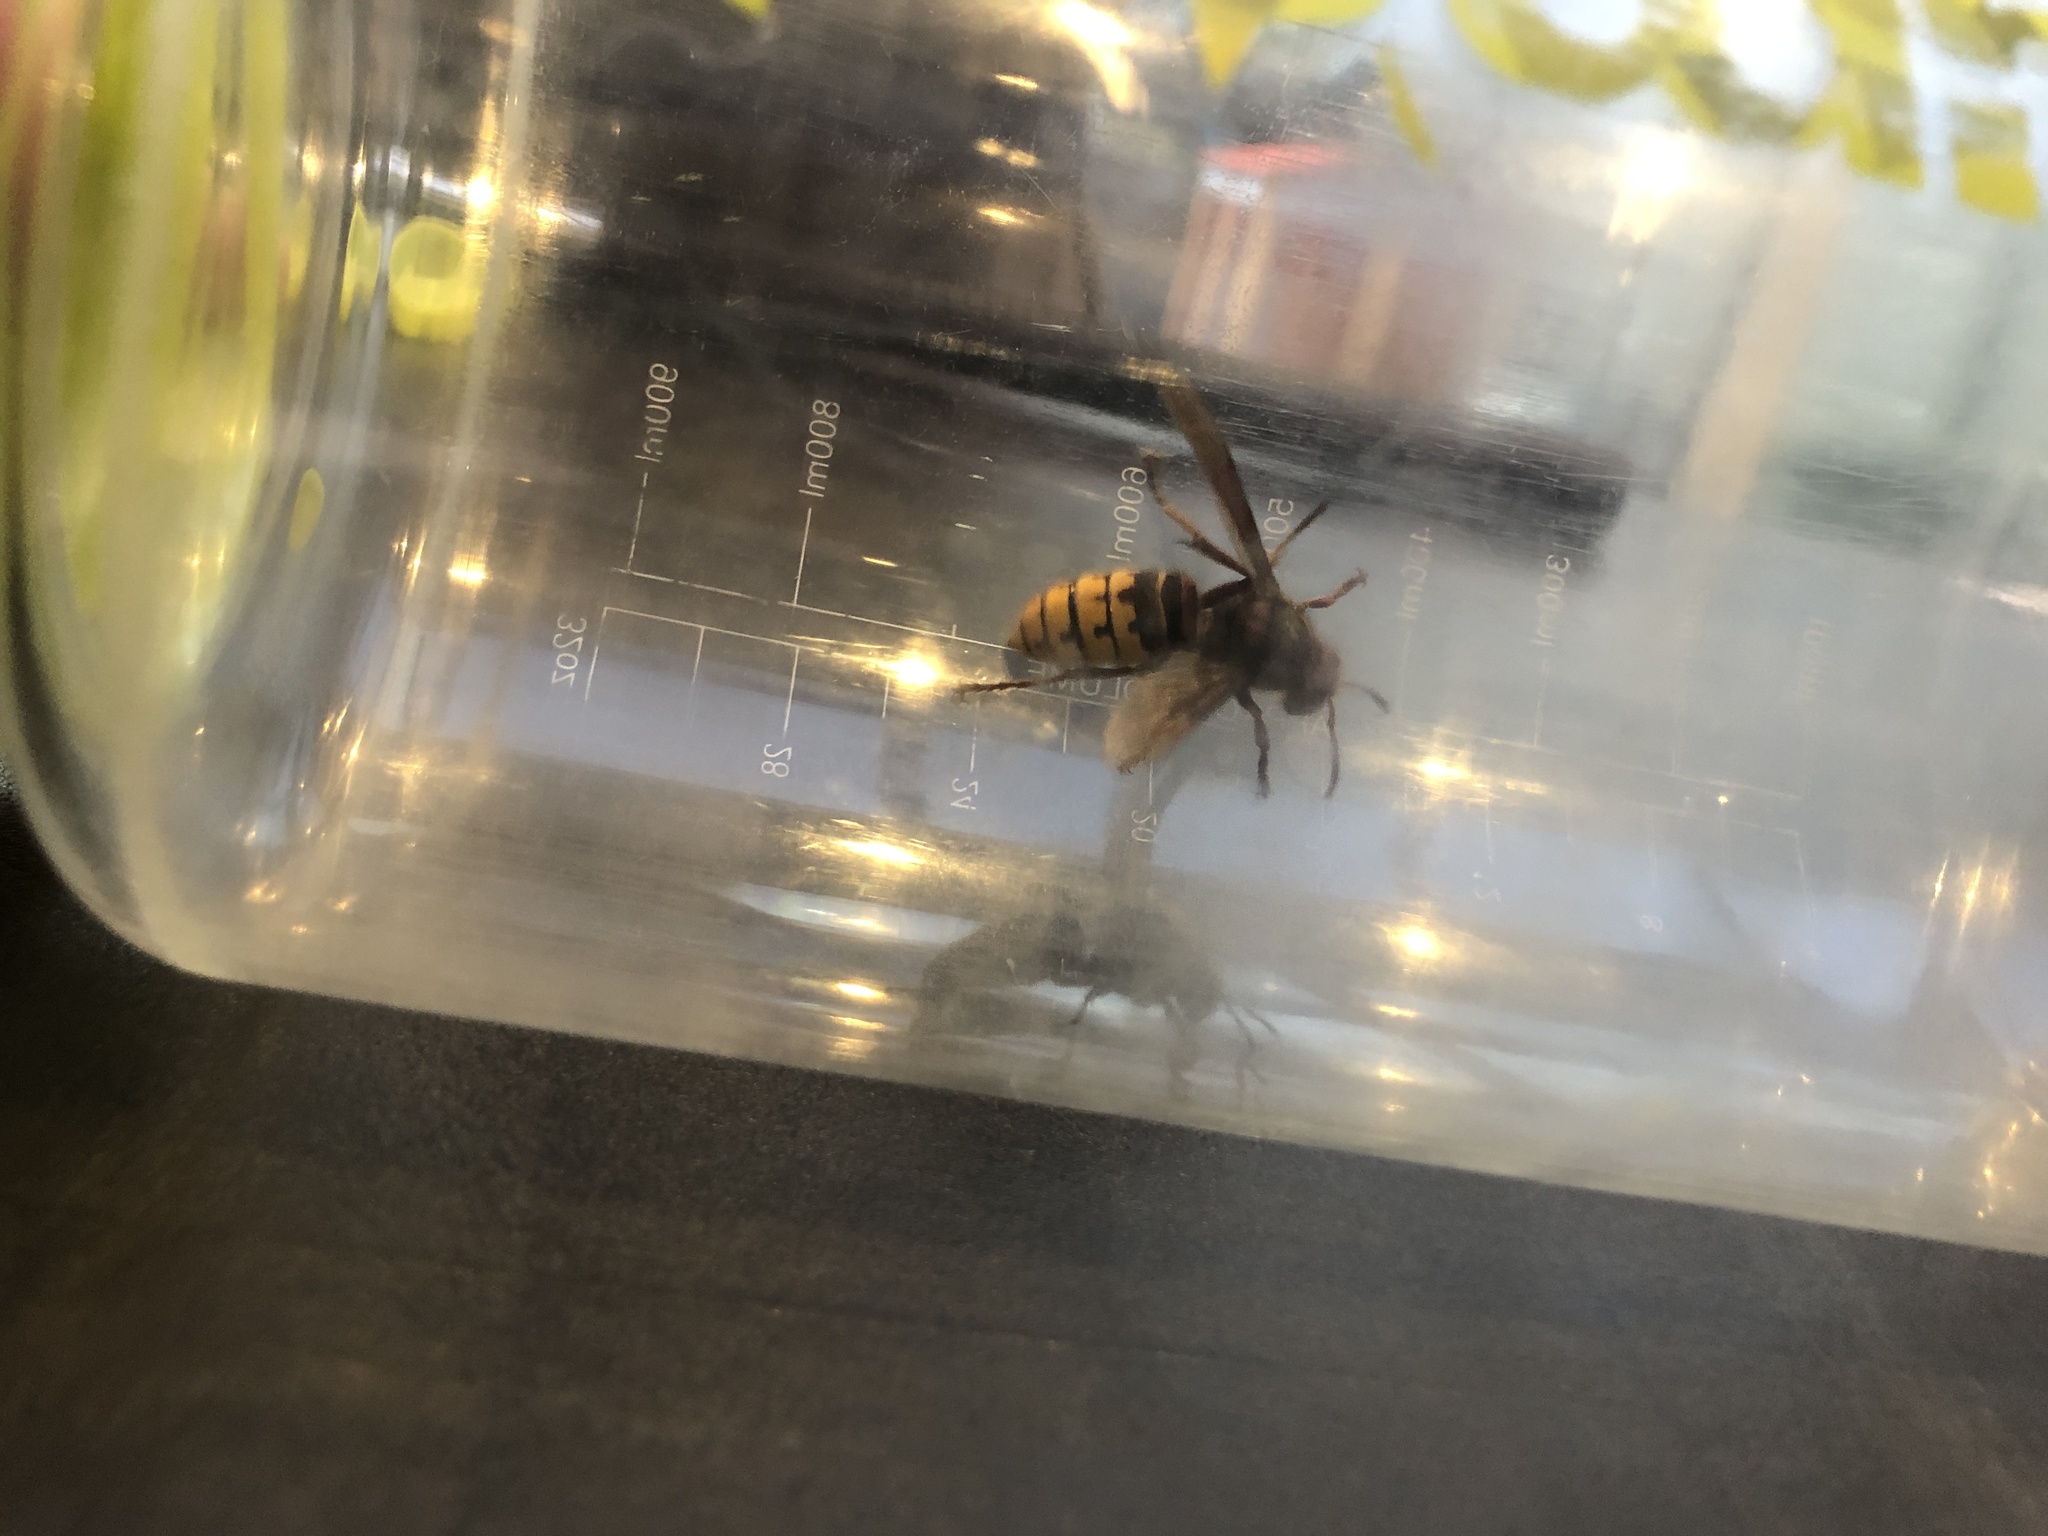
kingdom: Animalia
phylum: Arthropoda
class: Insecta
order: Hymenoptera
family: Vespidae
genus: Vespa
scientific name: Vespa crabro
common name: Hornet
